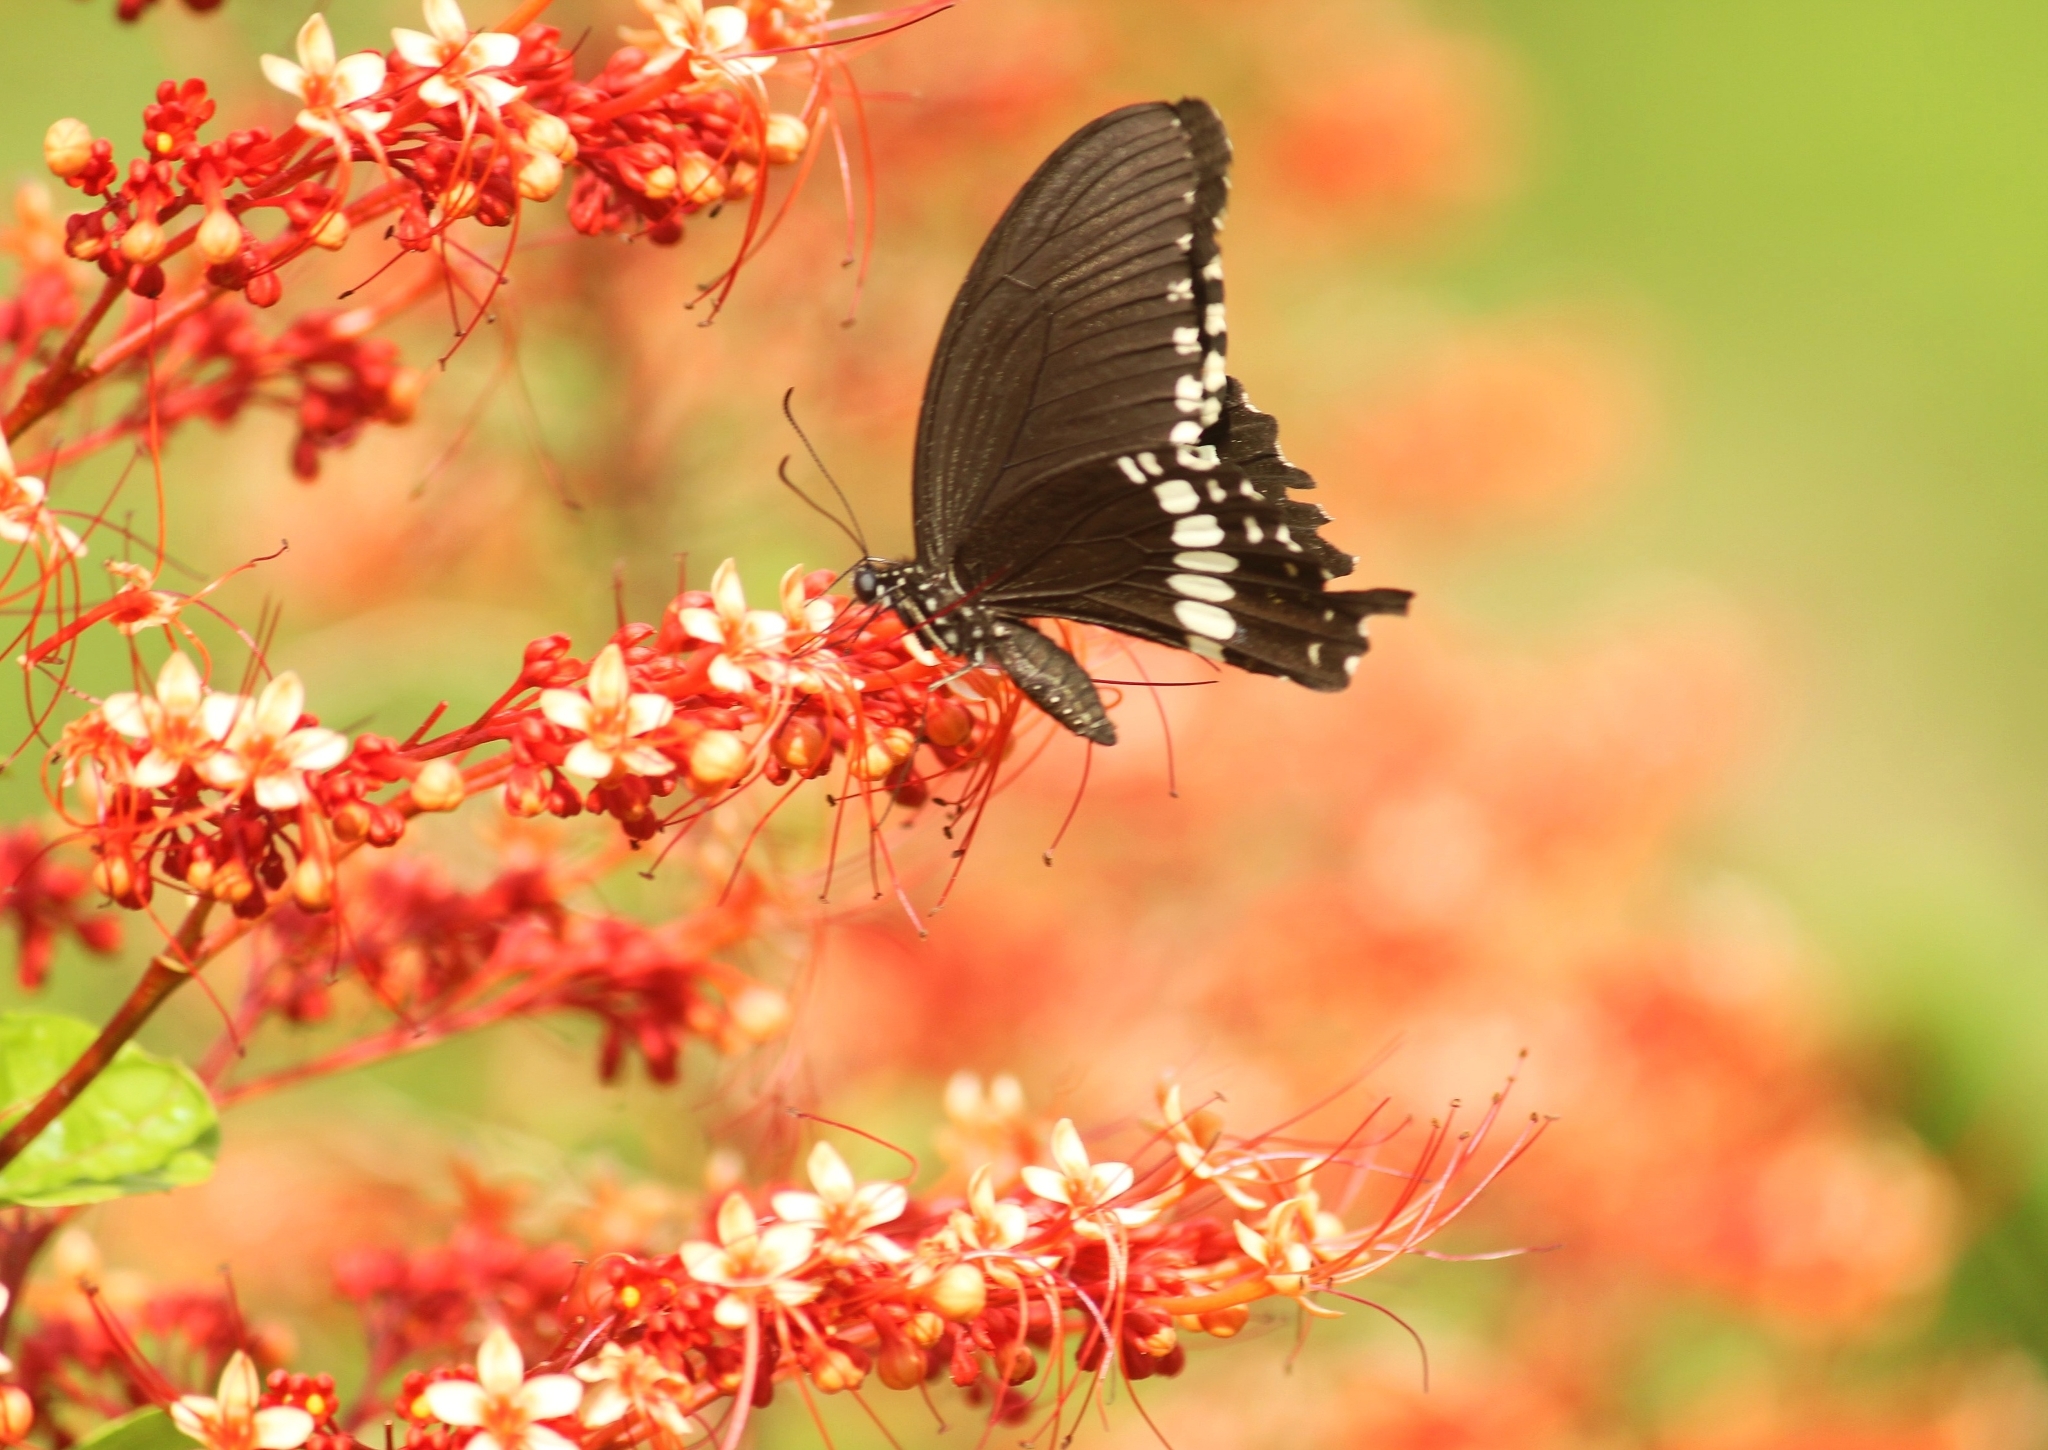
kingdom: Animalia
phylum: Arthropoda
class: Insecta
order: Lepidoptera
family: Papilionidae
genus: Papilio
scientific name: Papilio polytes
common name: Common mormon
